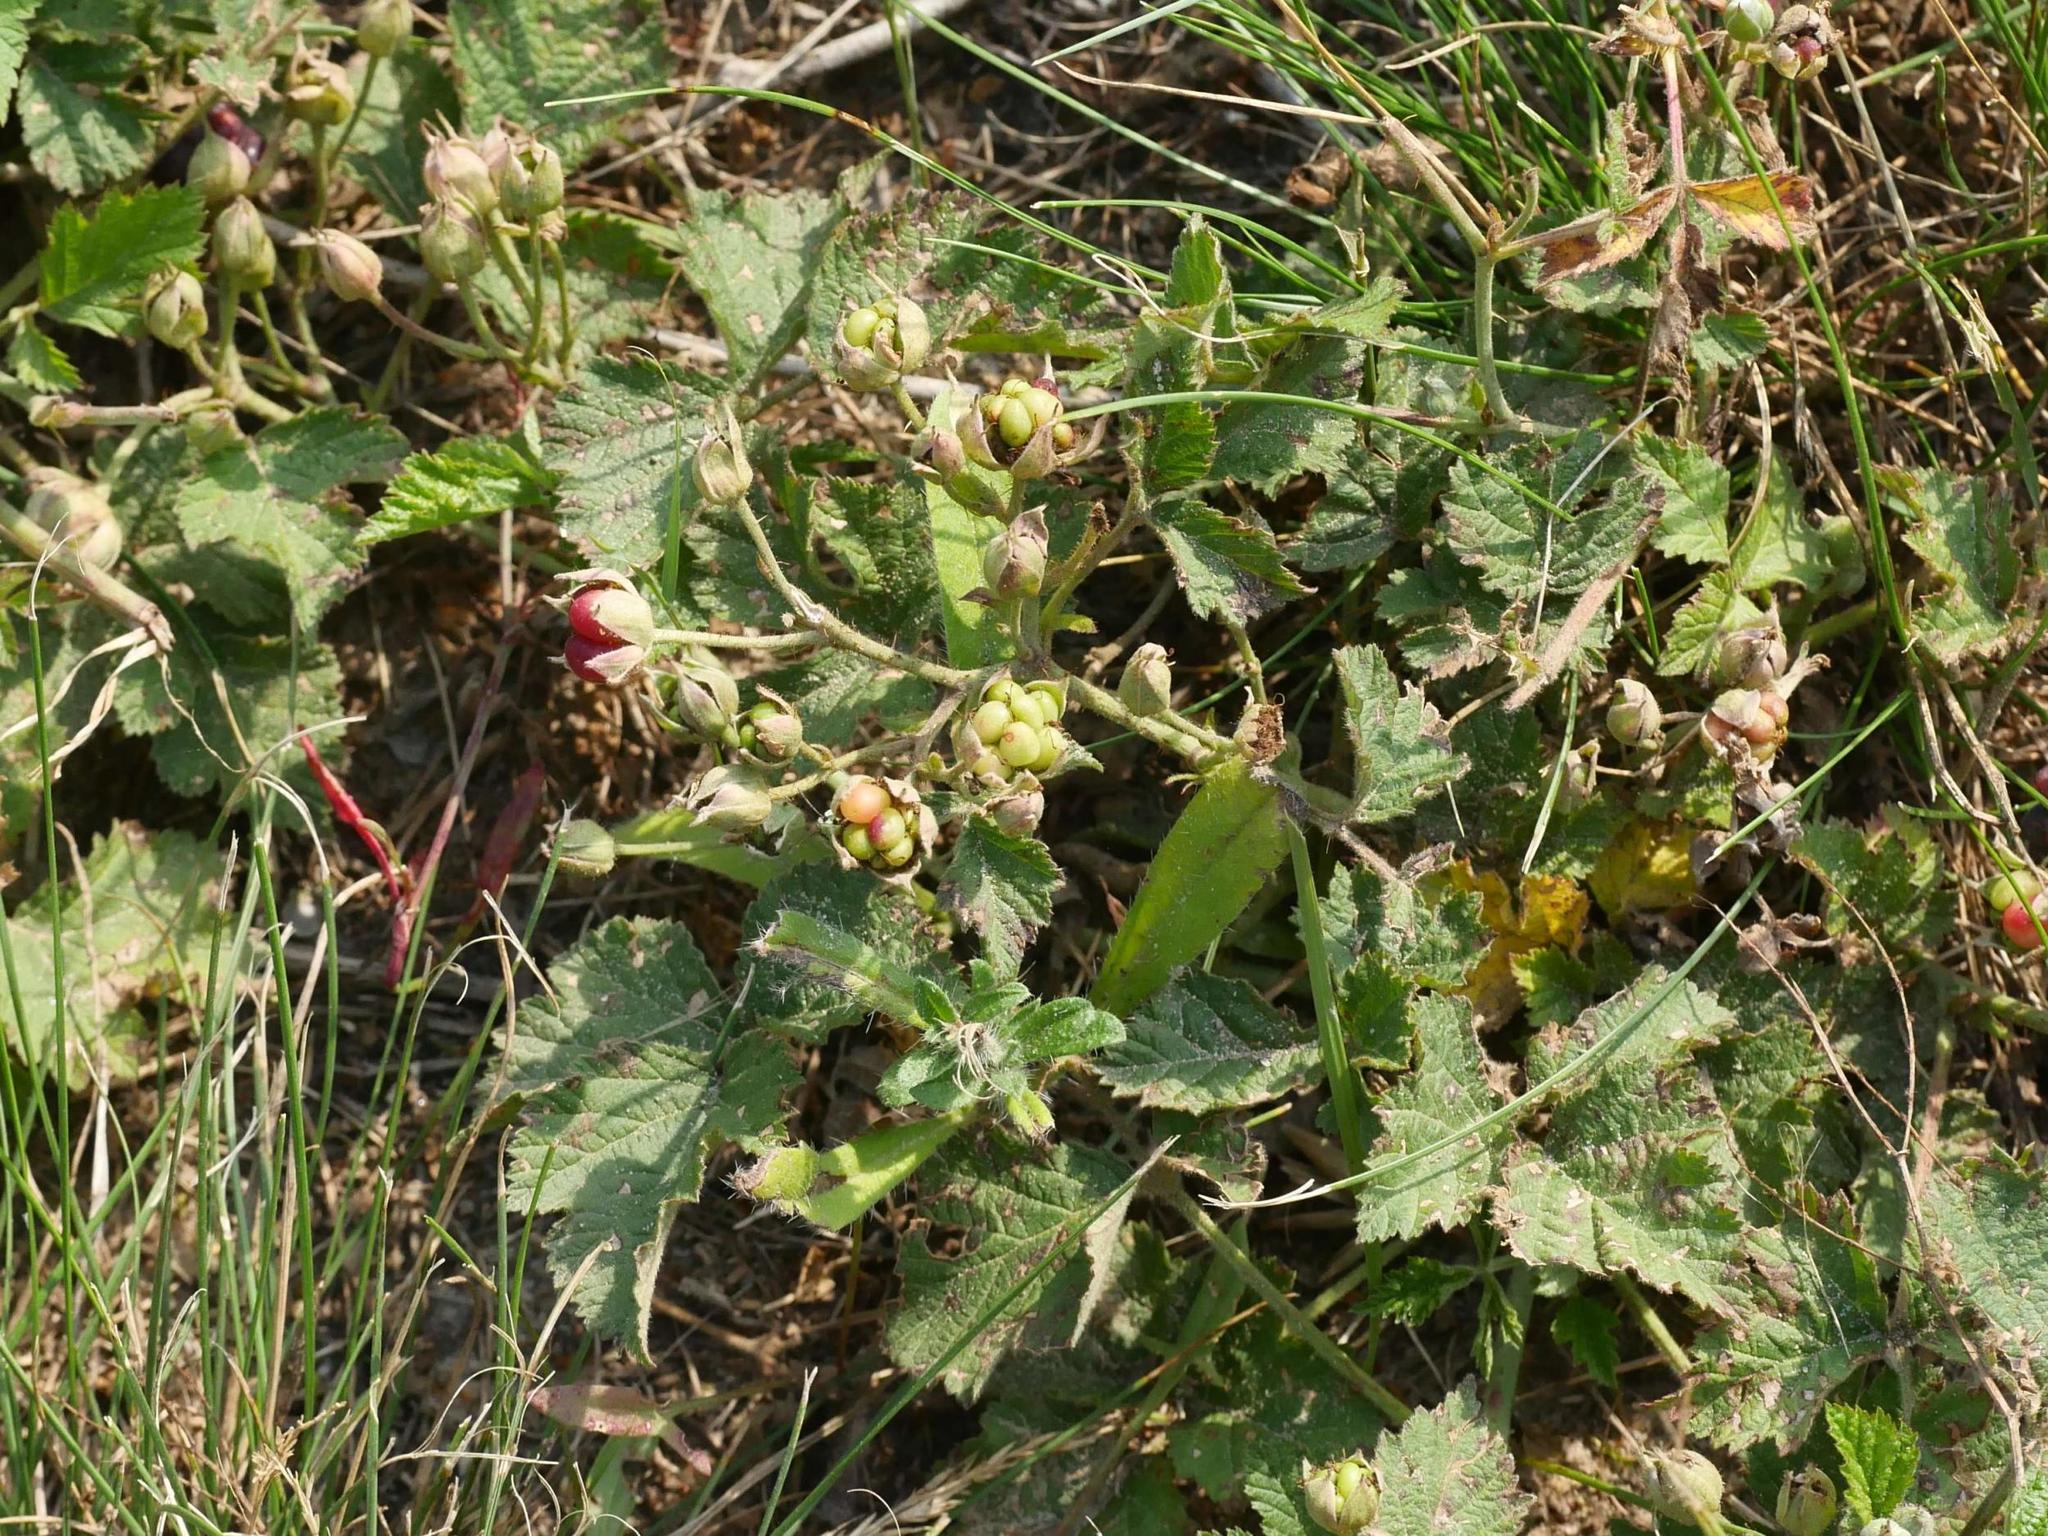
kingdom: Plantae
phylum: Tracheophyta
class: Magnoliopsida
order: Rosales
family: Rosaceae
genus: Rubus
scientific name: Rubus caesius
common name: Dewberry
